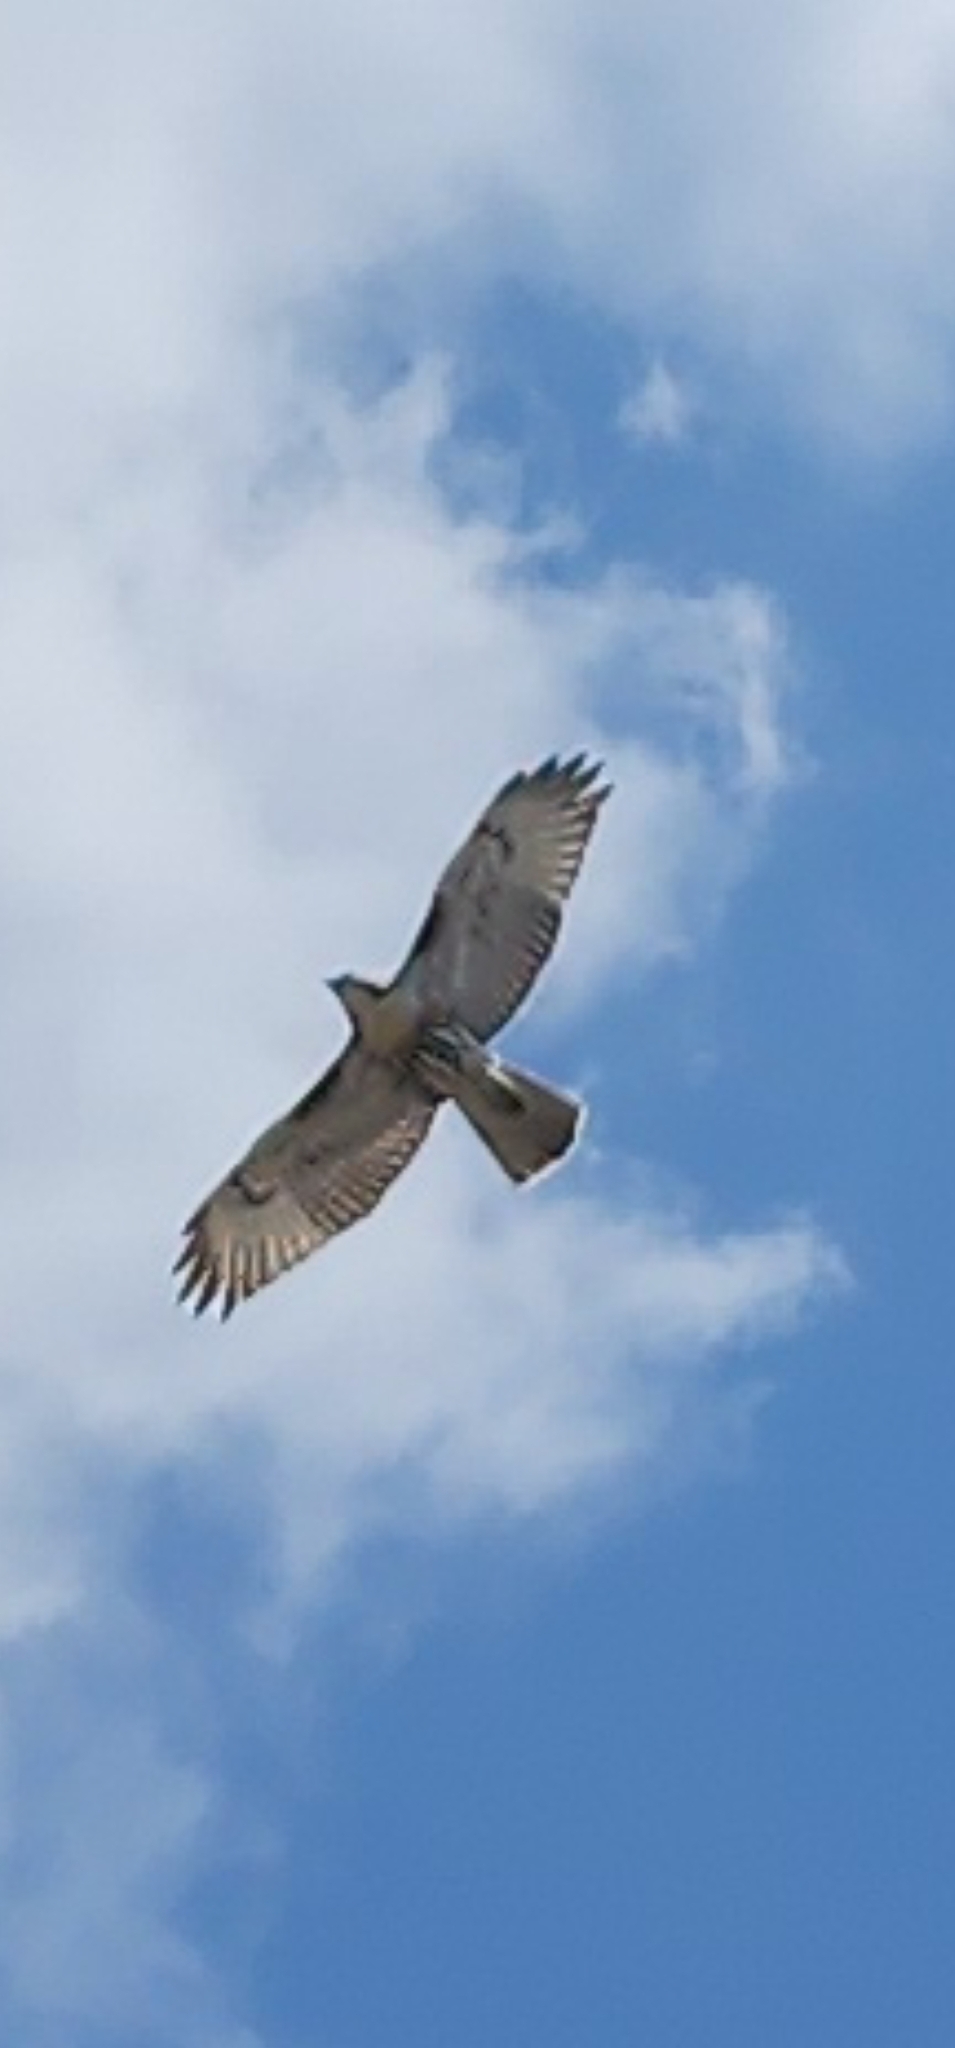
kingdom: Animalia
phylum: Chordata
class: Aves
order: Accipitriformes
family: Accipitridae
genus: Buteo
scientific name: Buteo jamaicensis
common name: Red-tailed hawk
